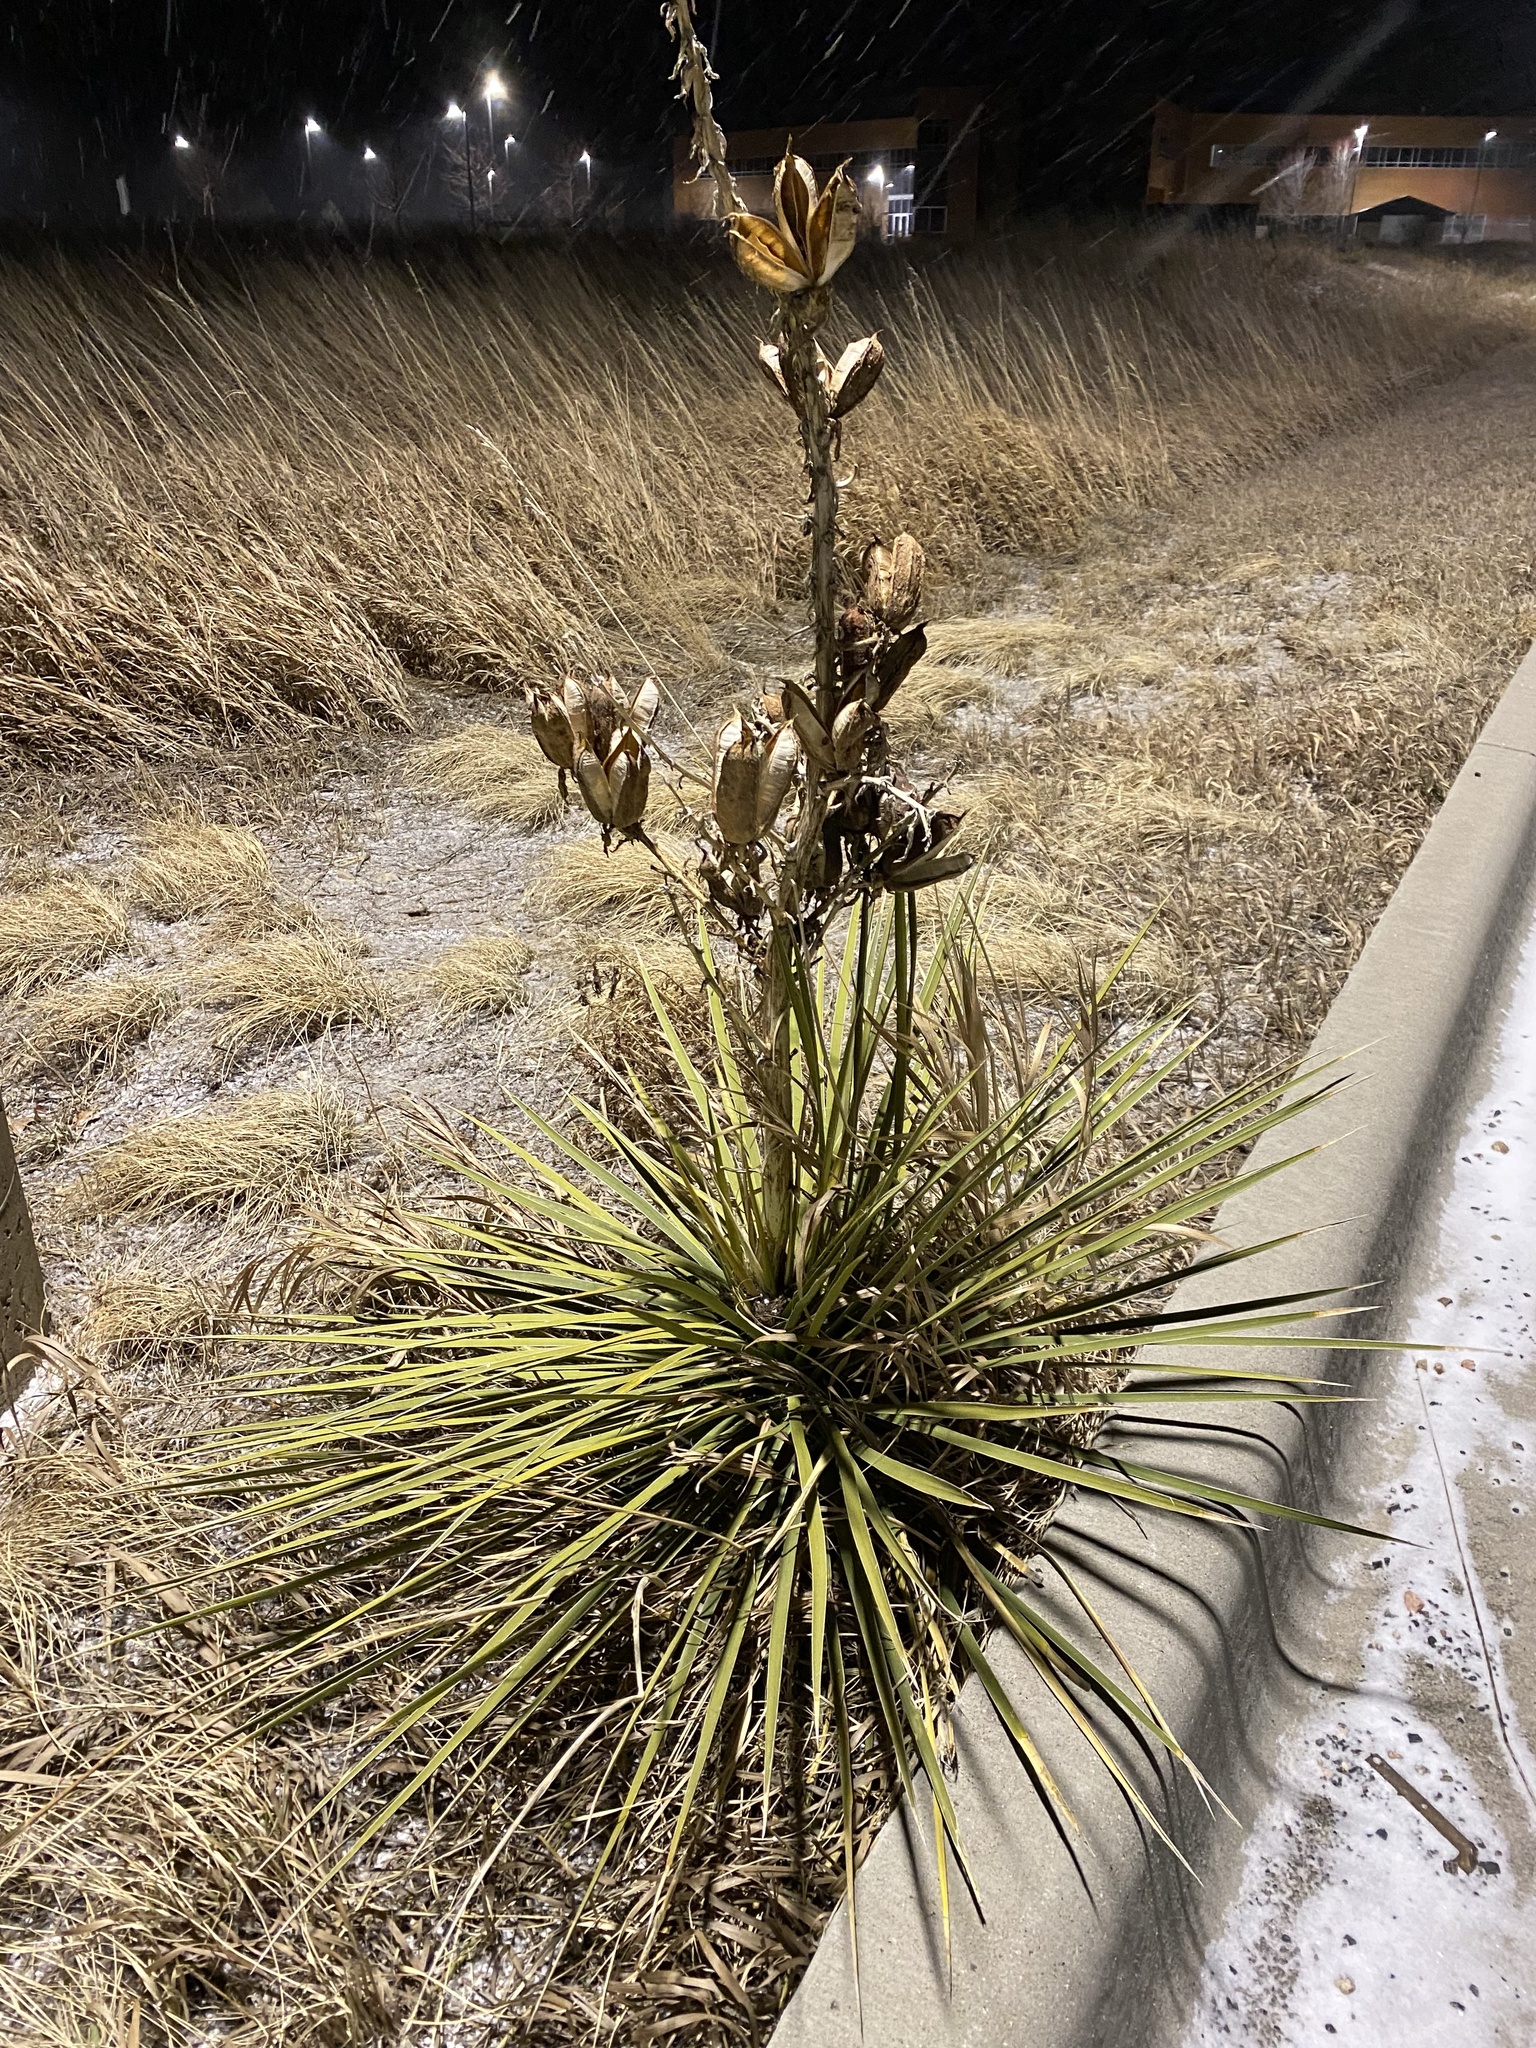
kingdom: Plantae
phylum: Tracheophyta
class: Liliopsida
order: Asparagales
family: Asparagaceae
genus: Yucca
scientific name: Yucca glauca
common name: Great plains yucca
